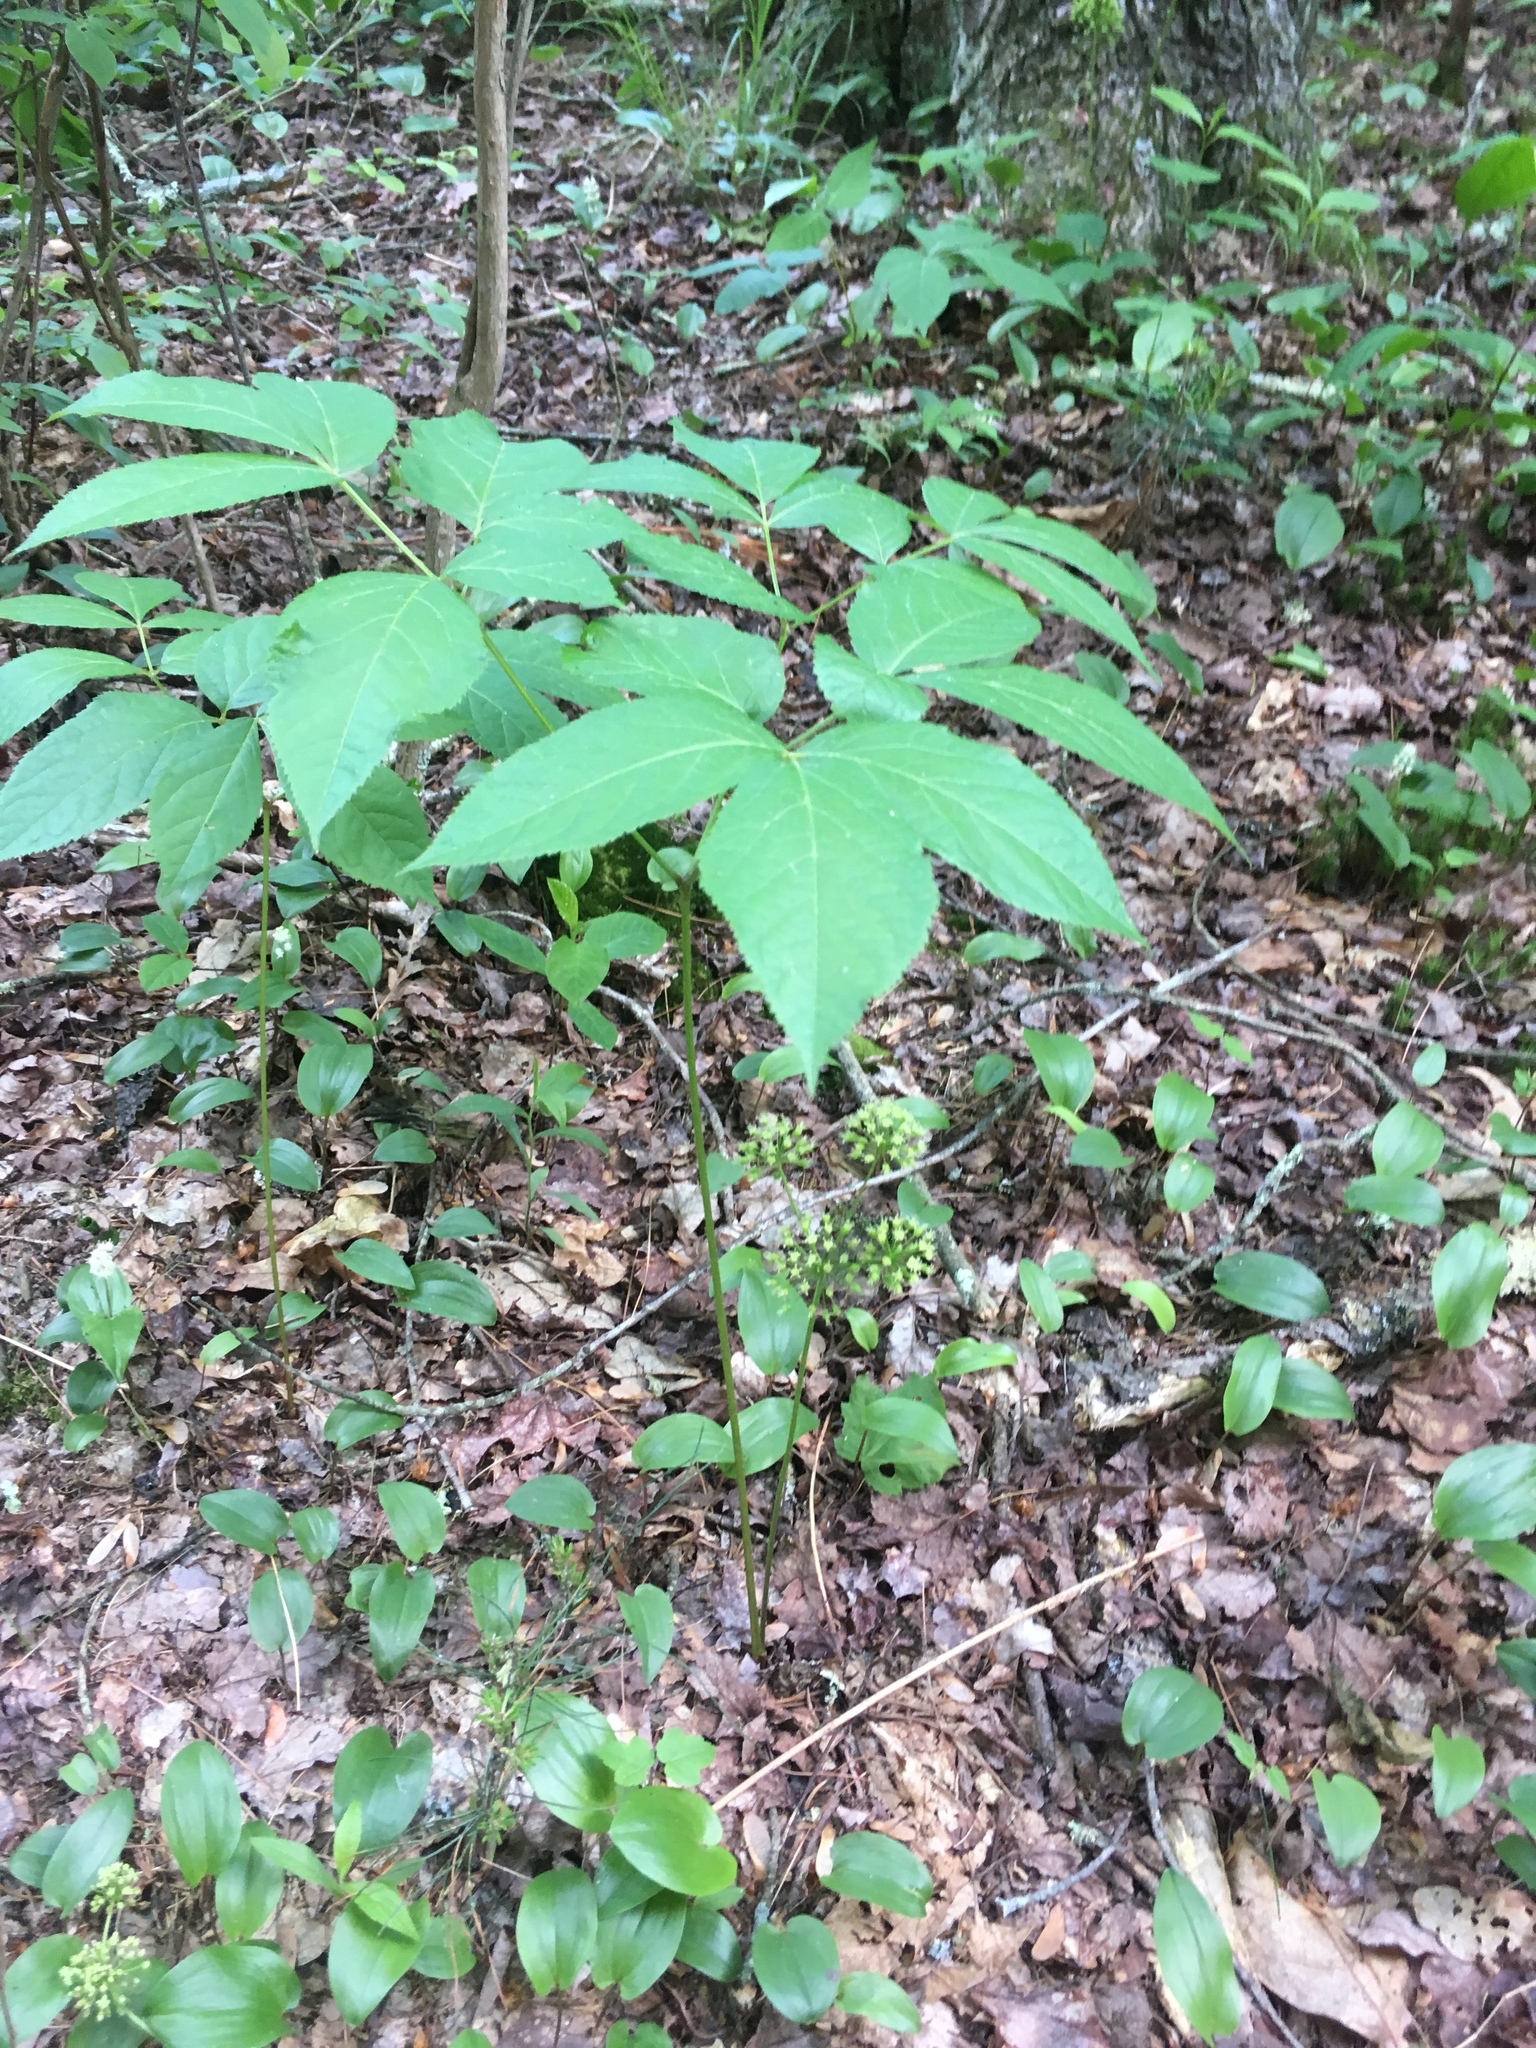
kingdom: Plantae
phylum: Tracheophyta
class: Magnoliopsida
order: Apiales
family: Araliaceae
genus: Aralia
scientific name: Aralia nudicaulis
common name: Wild sarsaparilla
